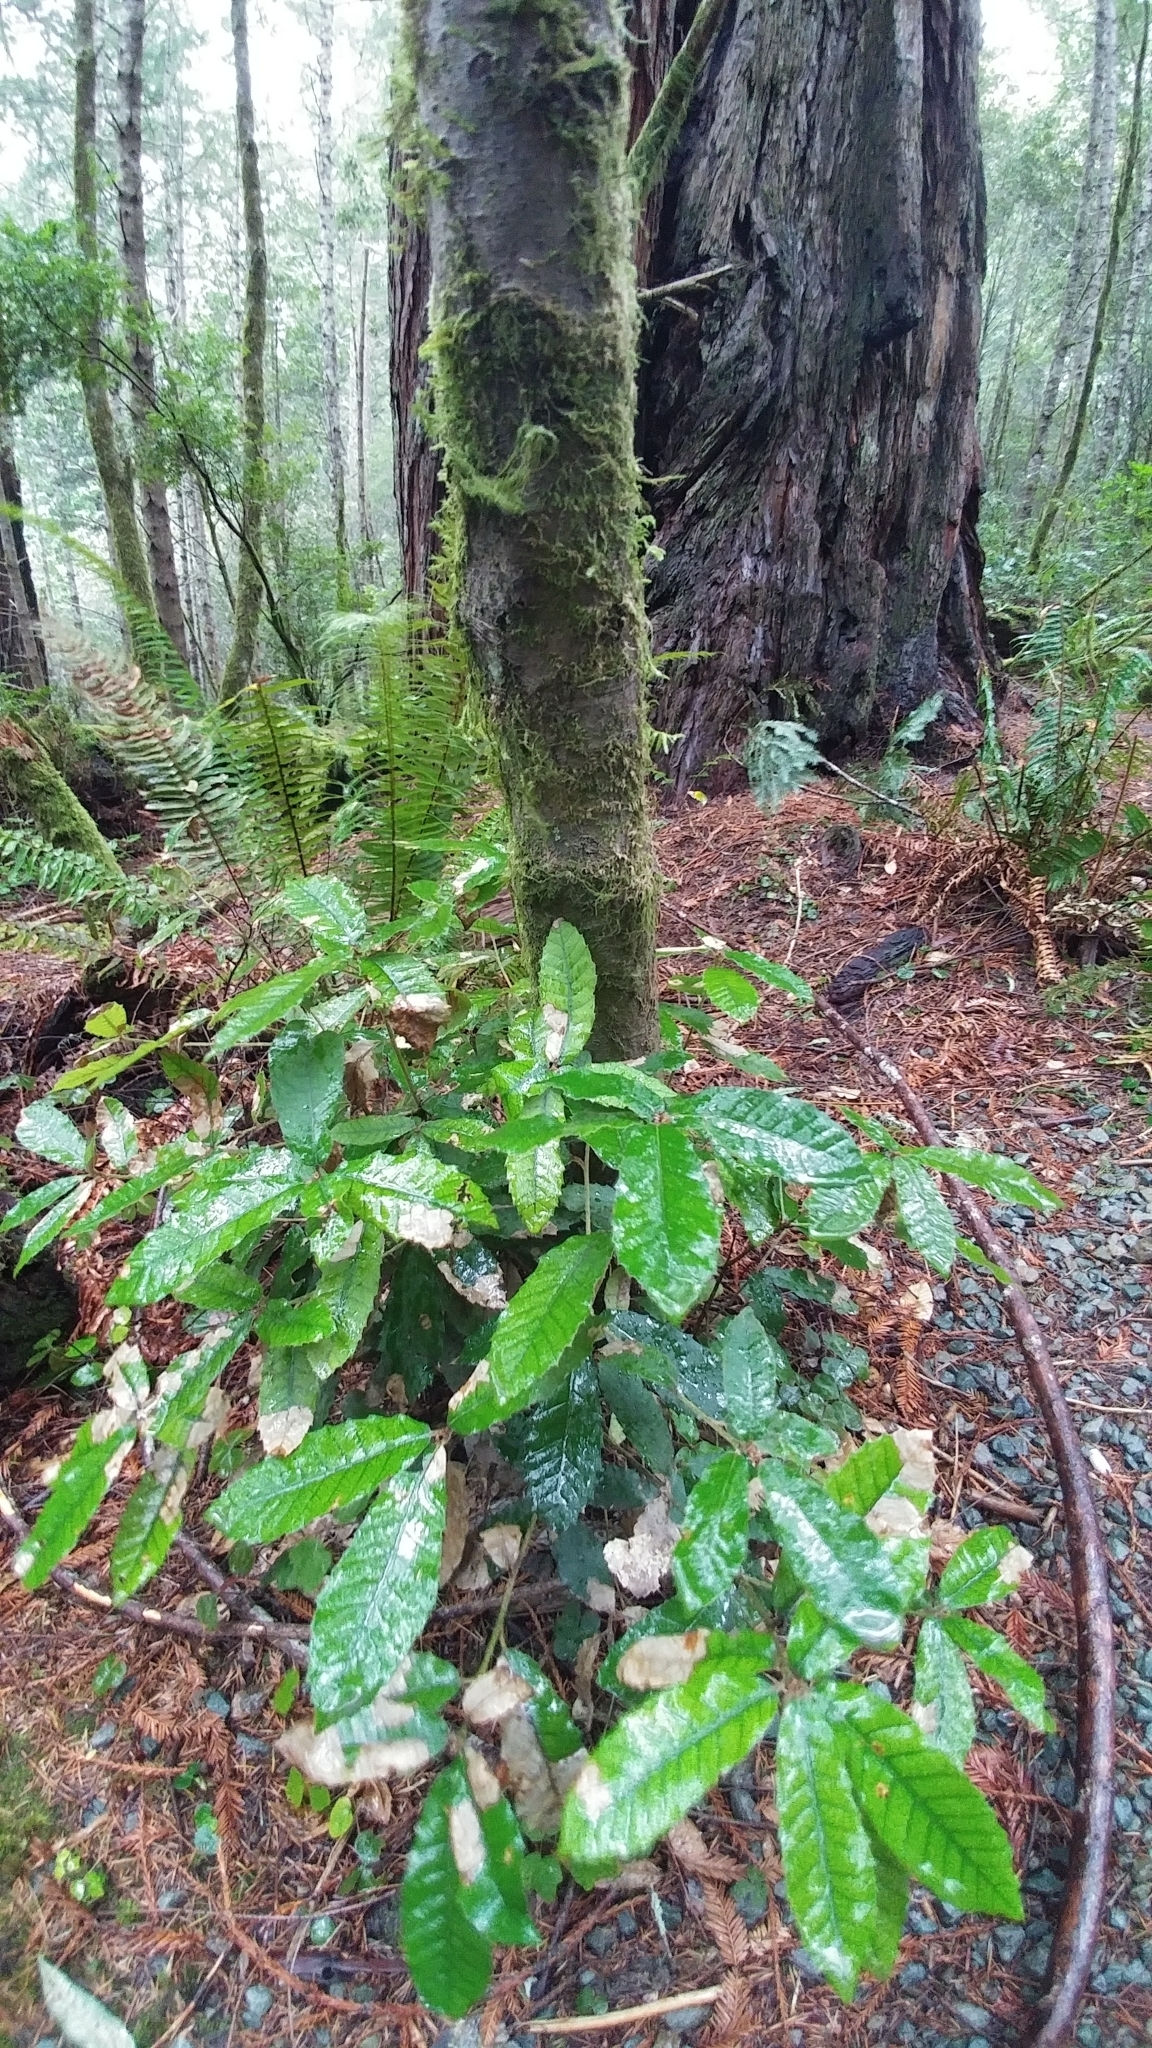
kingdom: Plantae
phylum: Tracheophyta
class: Magnoliopsida
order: Fagales
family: Fagaceae
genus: Notholithocarpus
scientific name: Notholithocarpus densiflorus
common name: Tan bark oak
